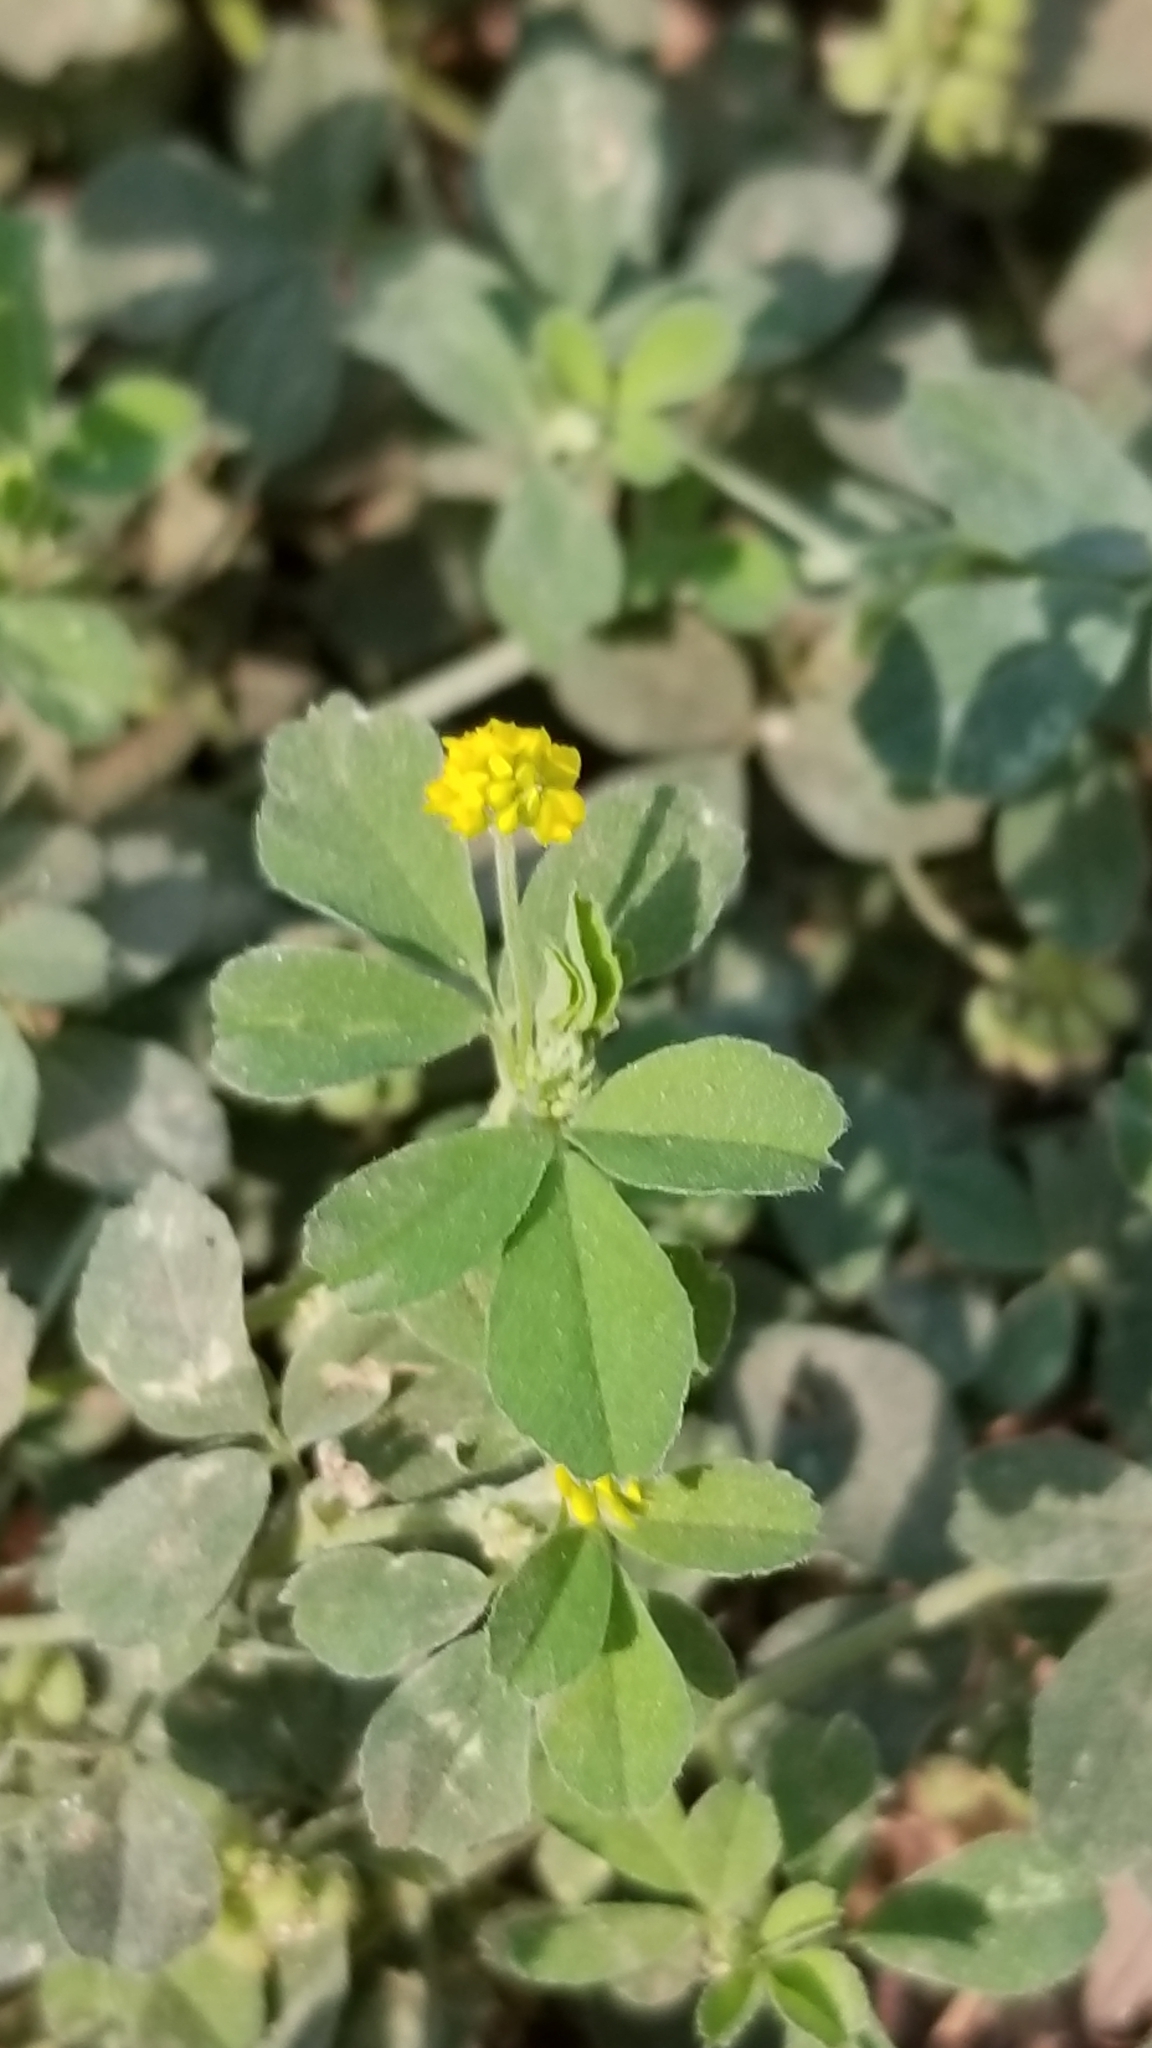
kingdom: Plantae
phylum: Tracheophyta
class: Magnoliopsida
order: Fabales
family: Fabaceae
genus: Medicago
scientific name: Medicago lupulina
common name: Black medick
